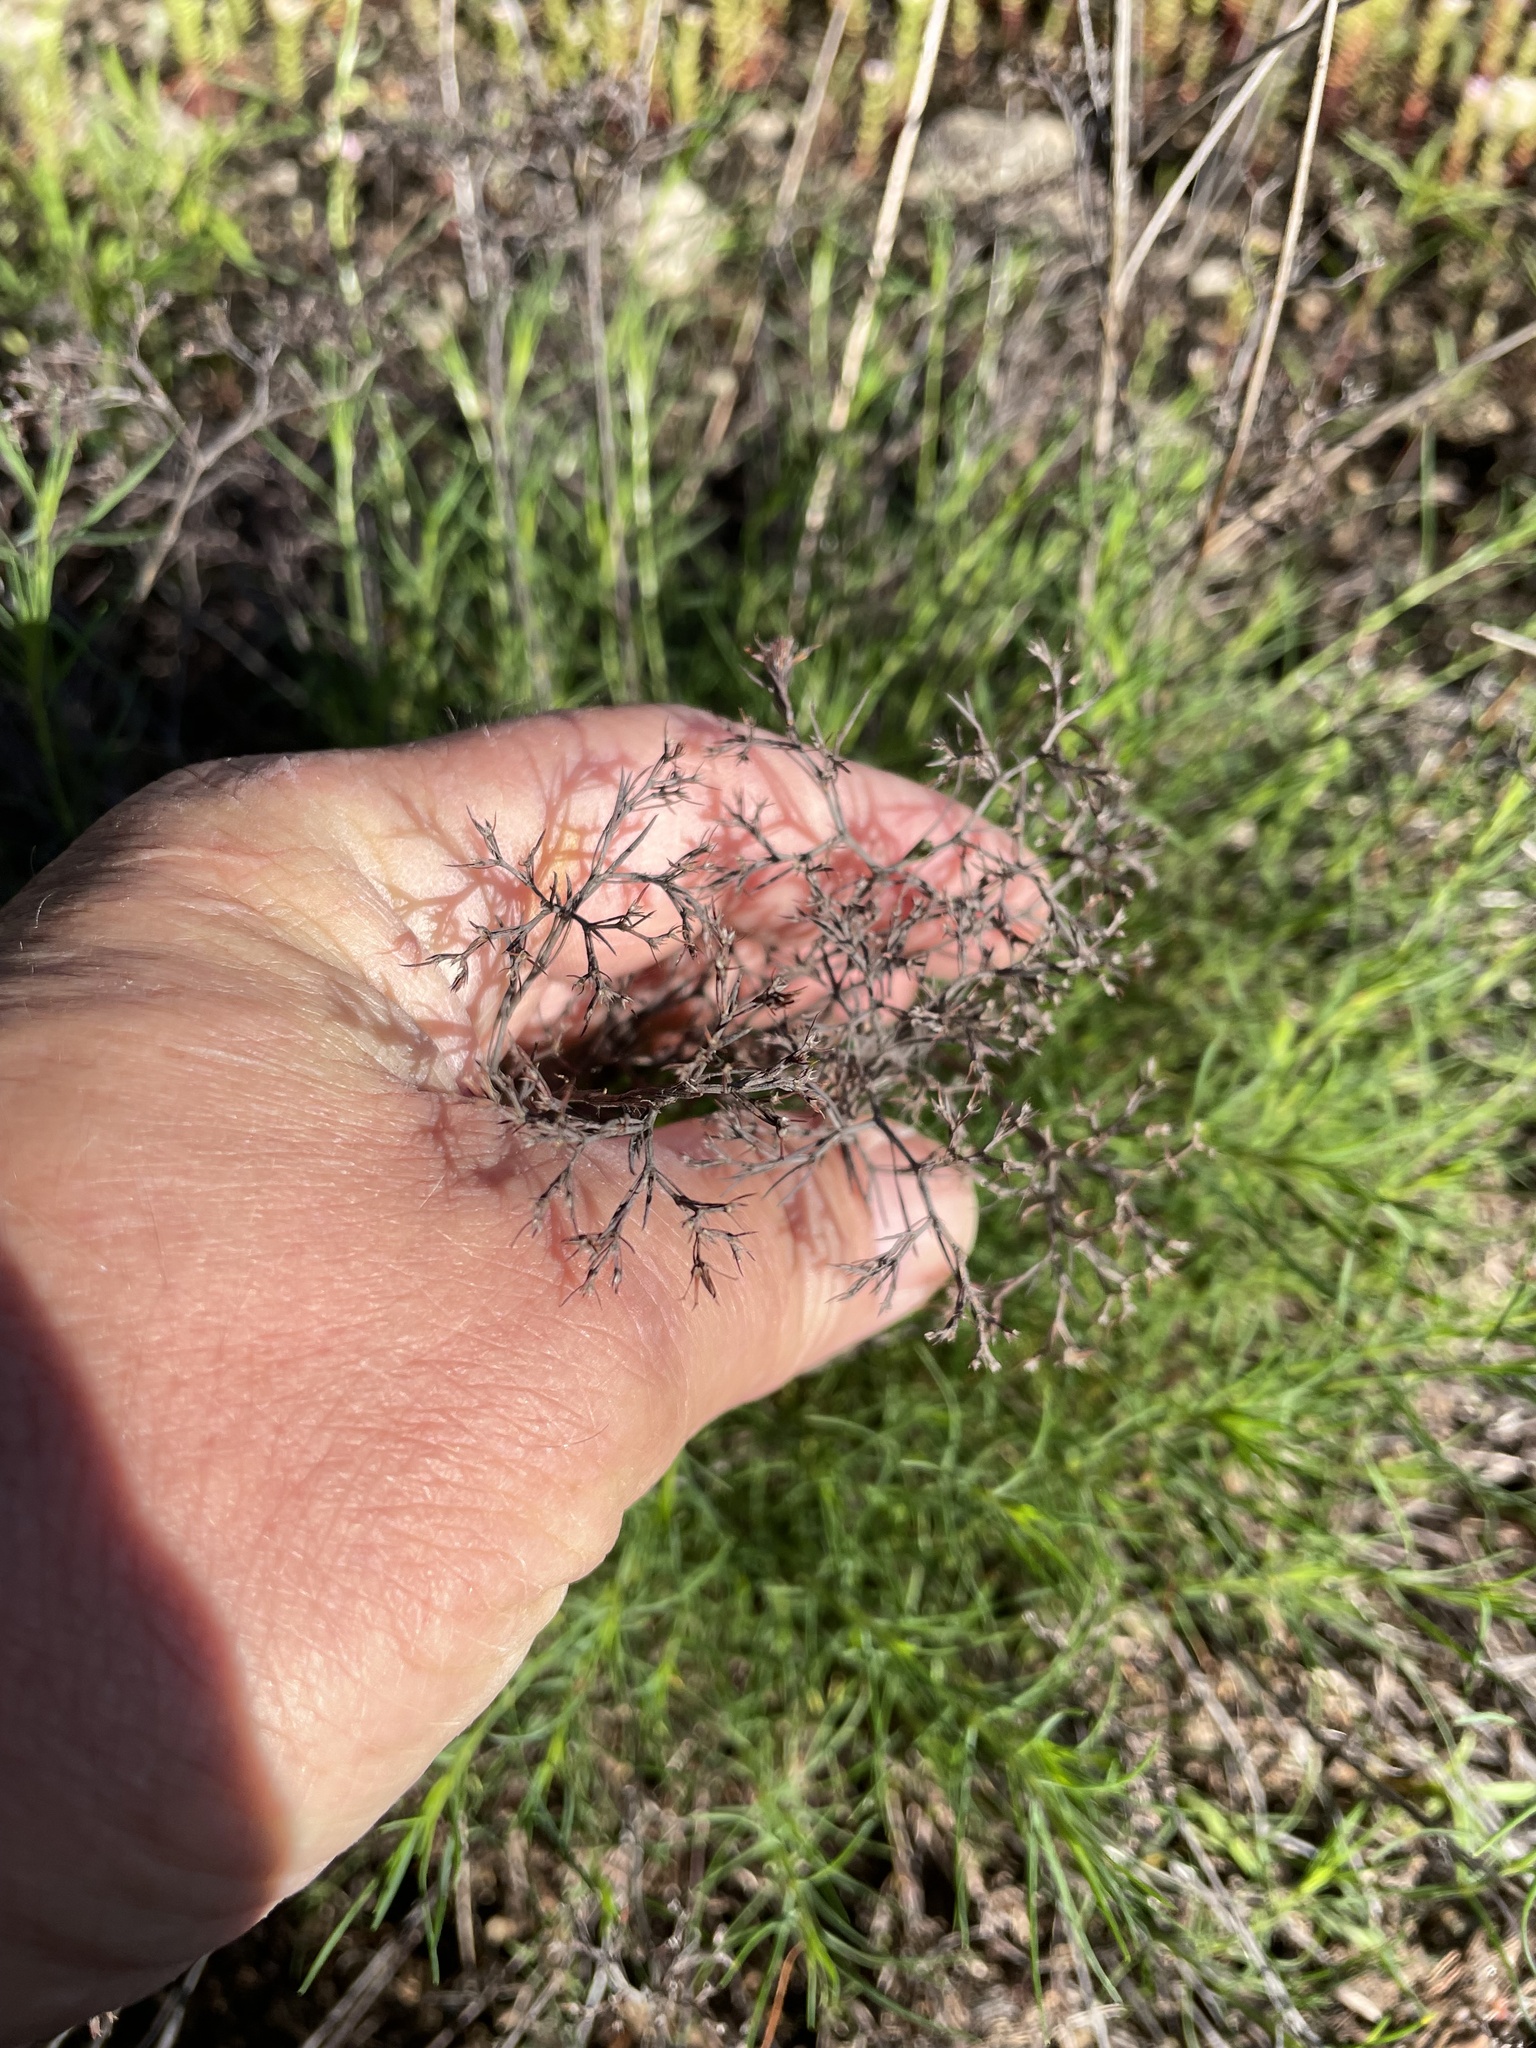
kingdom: Plantae
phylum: Tracheophyta
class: Magnoliopsida
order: Caryophyllales
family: Caryophyllaceae
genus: Paronychia
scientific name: Paronychia virginica
